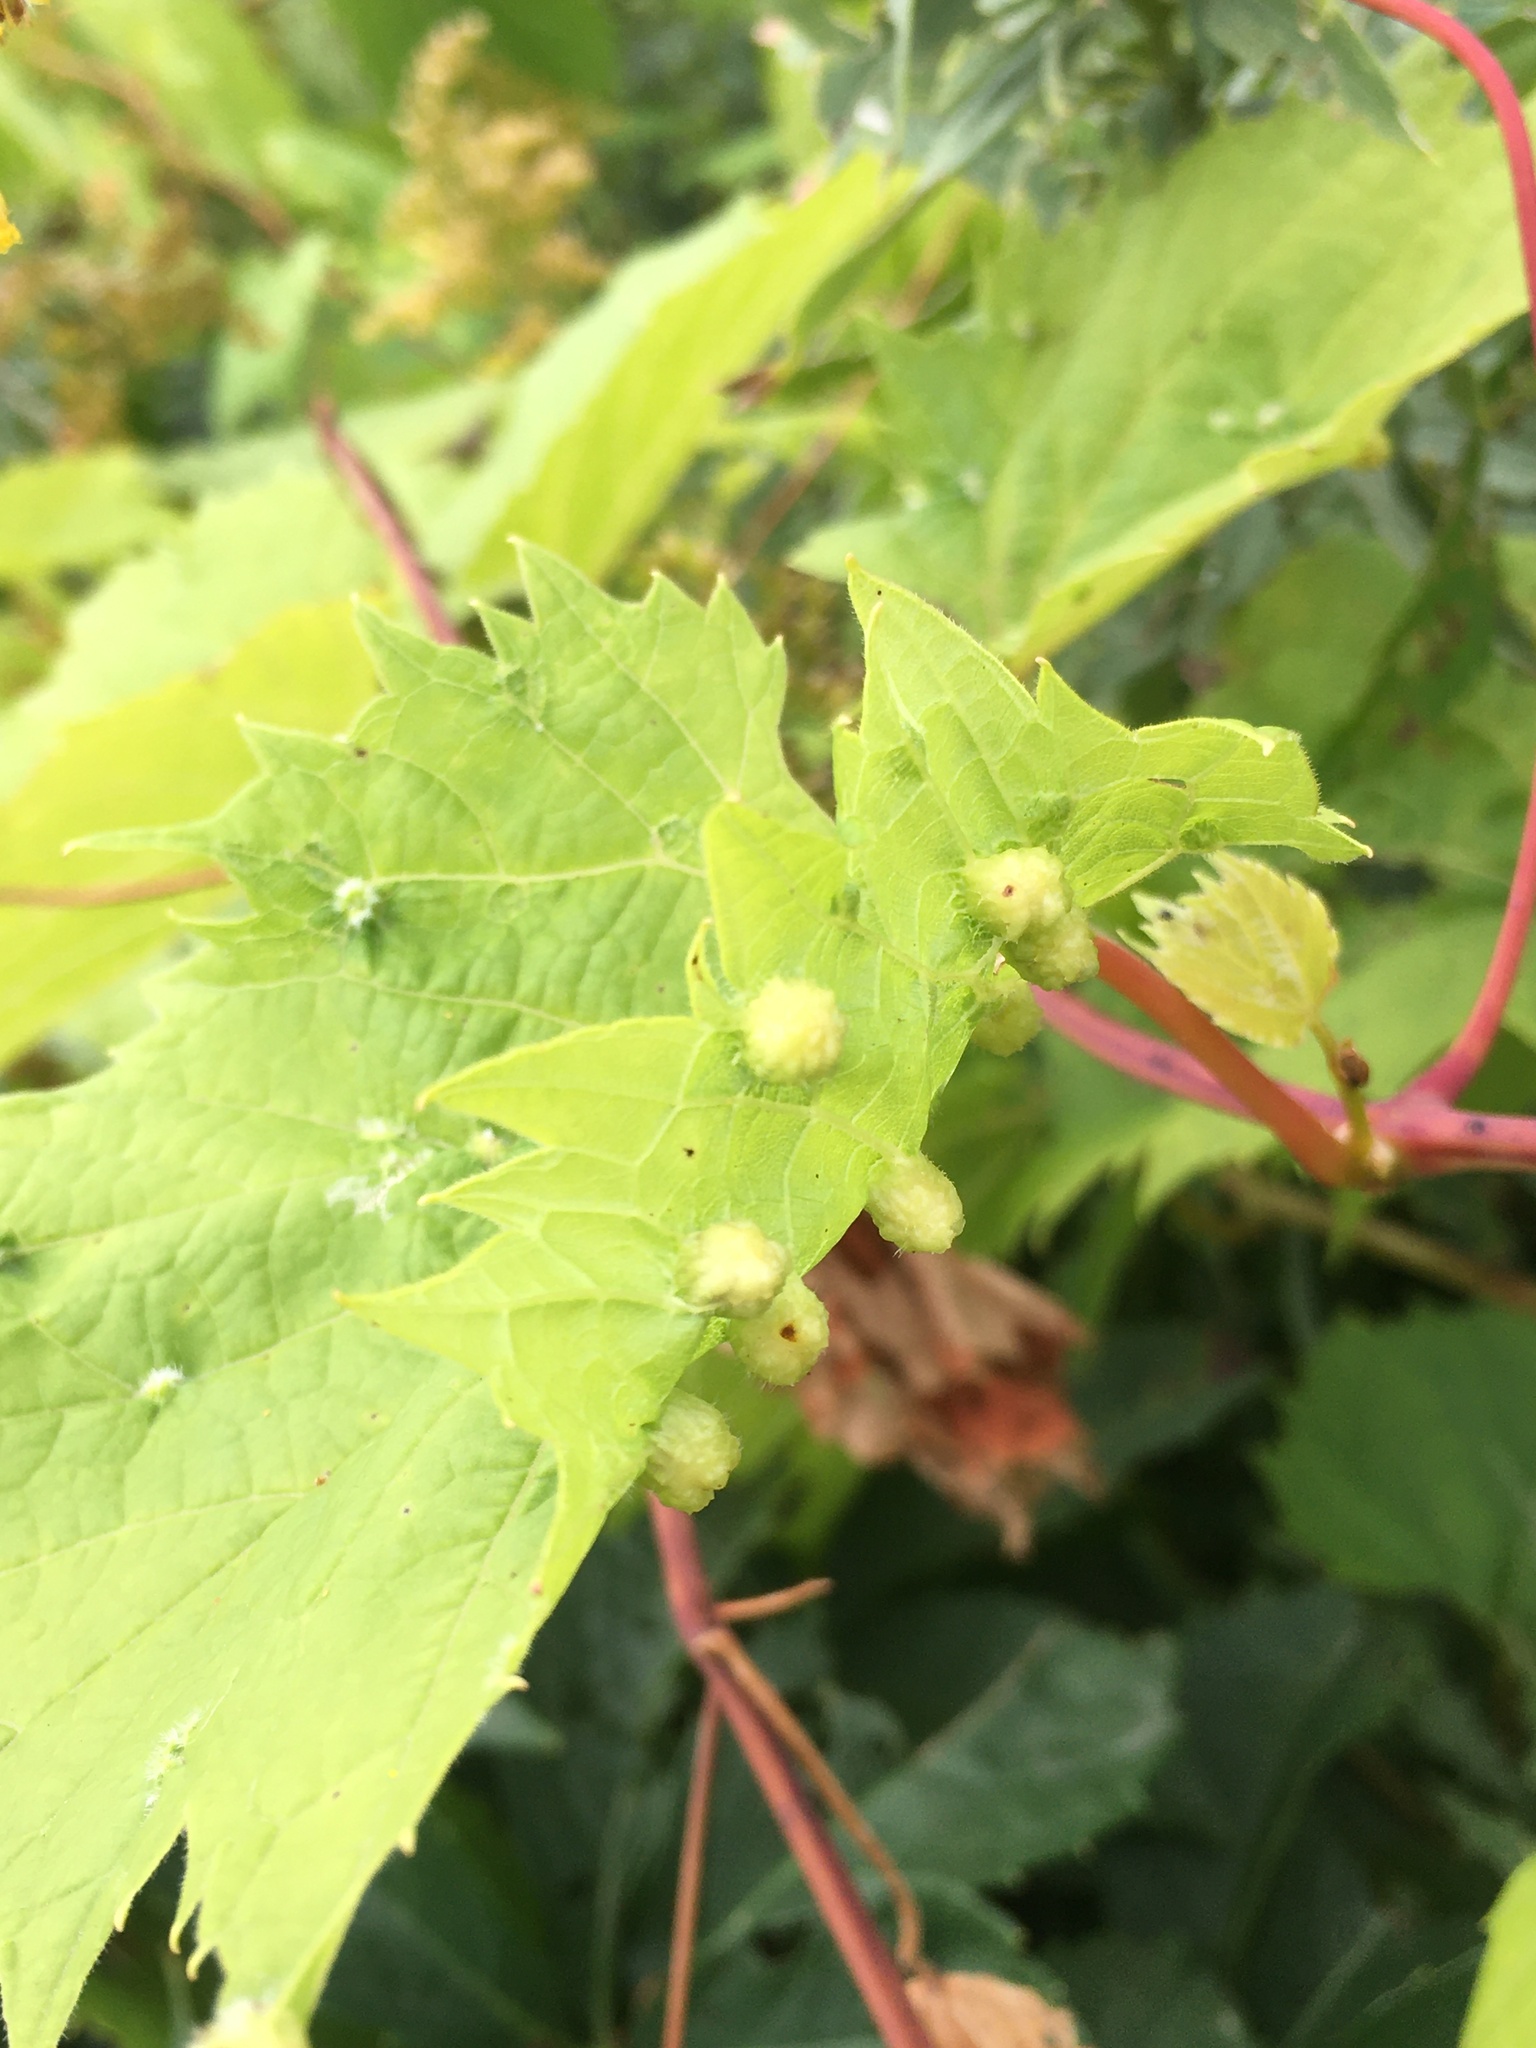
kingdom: Animalia
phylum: Arthropoda
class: Insecta
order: Hemiptera
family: Phylloxeridae
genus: Daktulosphaira
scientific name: Daktulosphaira vitifoliae
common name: Grape phylloxera
